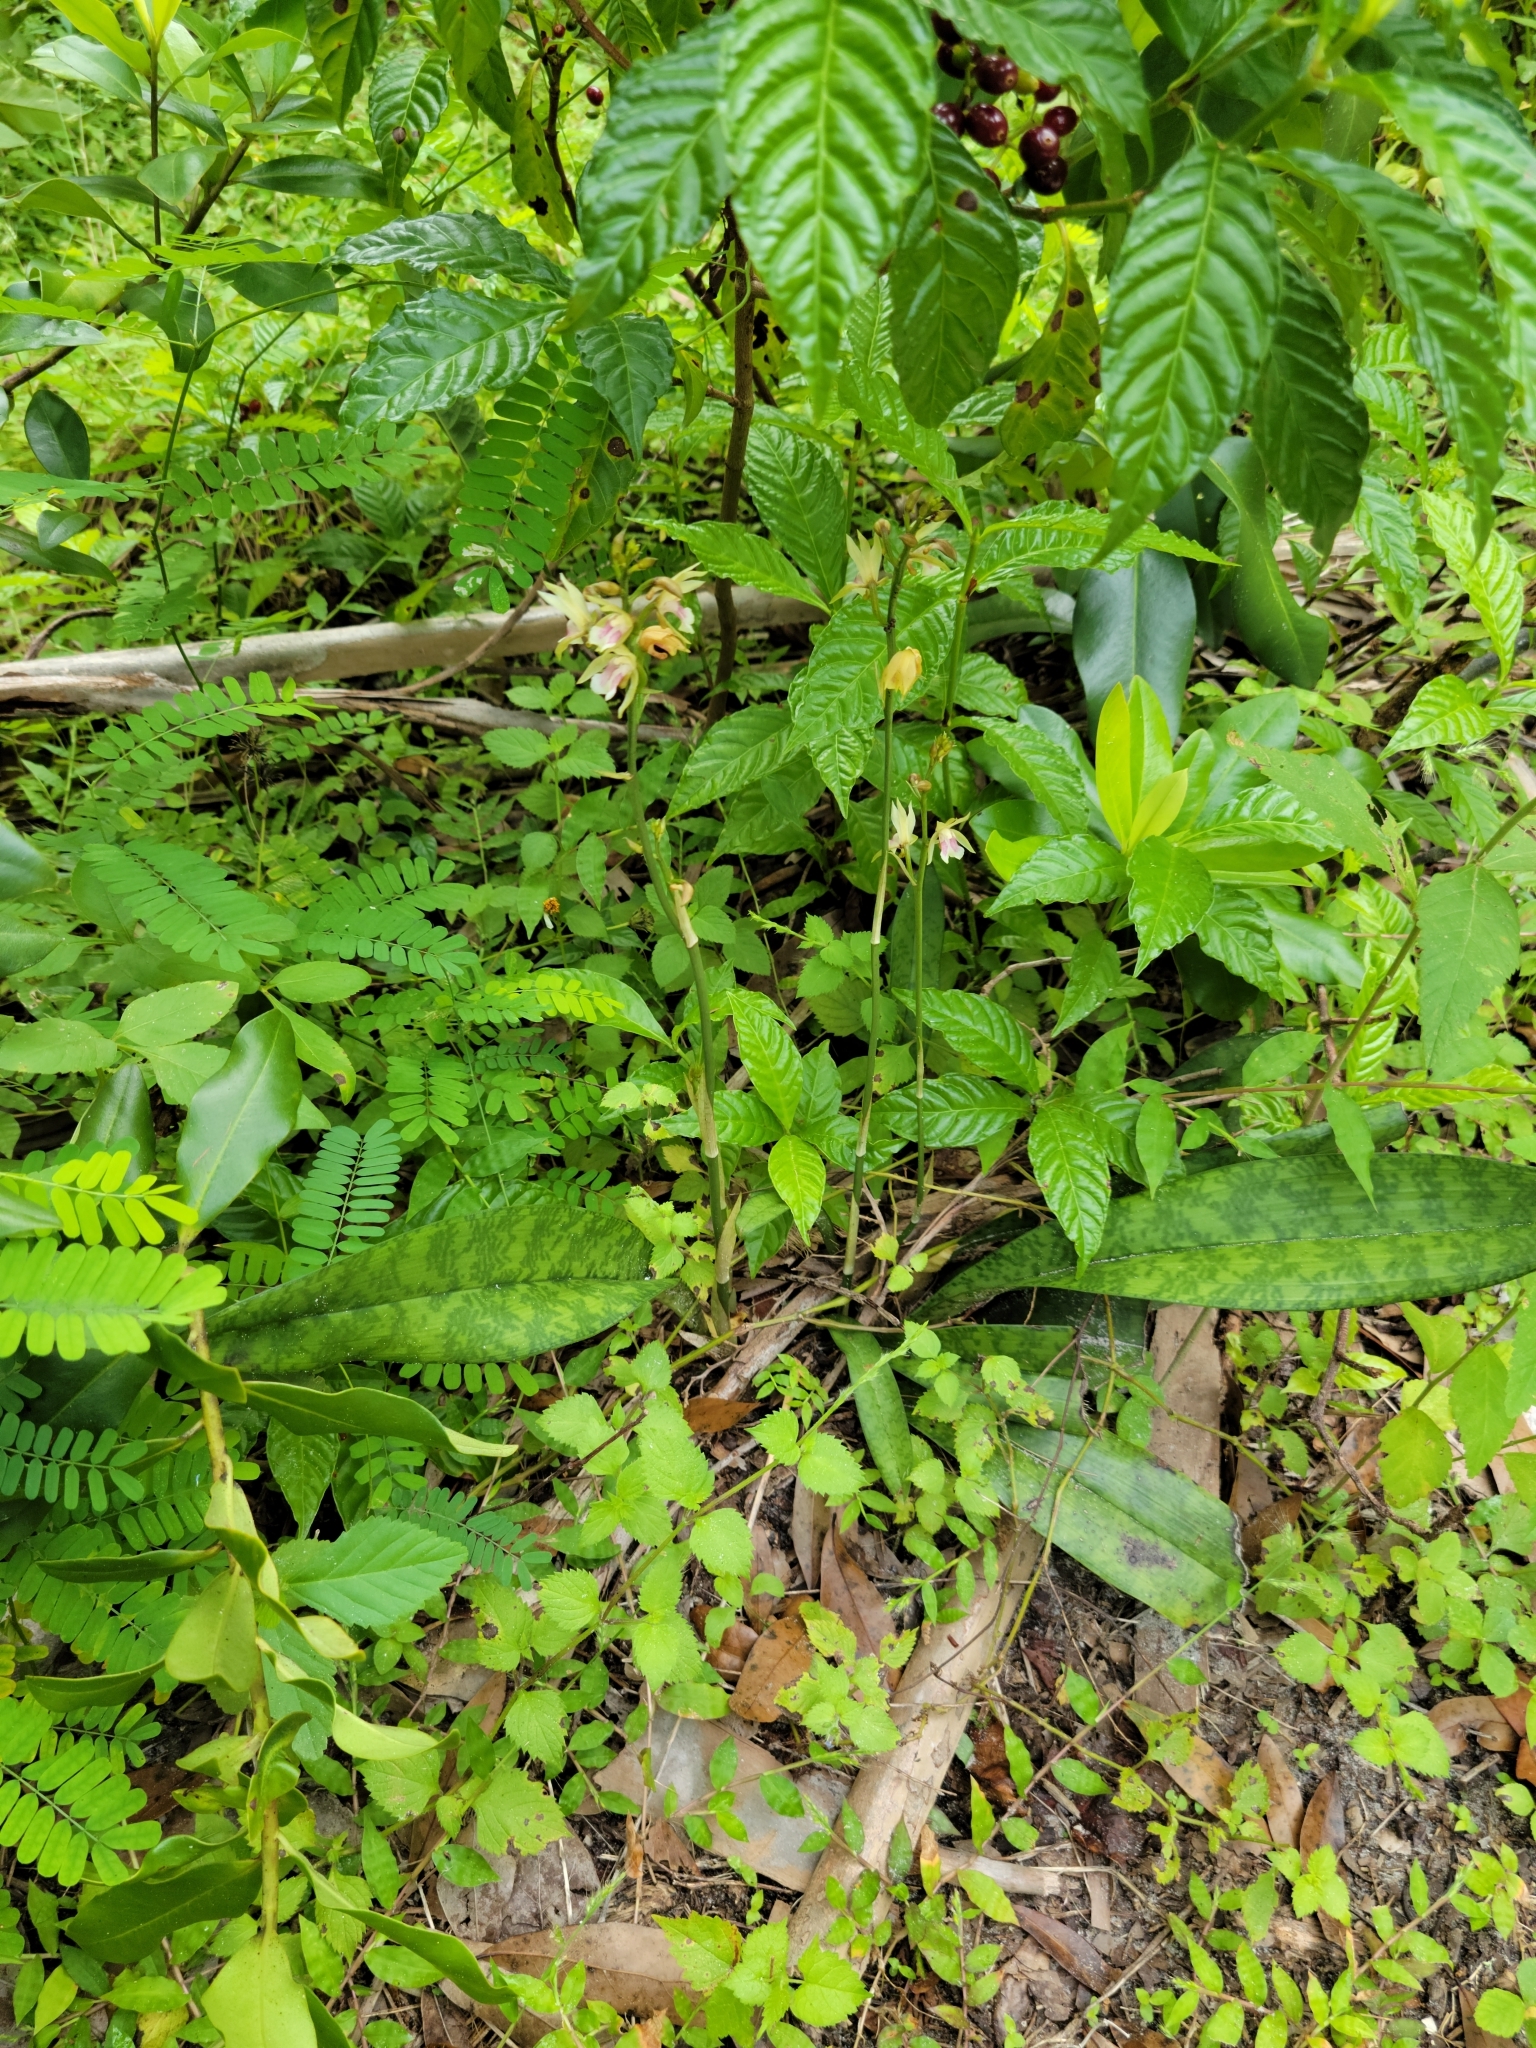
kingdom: Plantae
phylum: Tracheophyta
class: Liliopsida
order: Asparagales
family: Orchidaceae
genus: Eulophia
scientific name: Eulophia maculata
